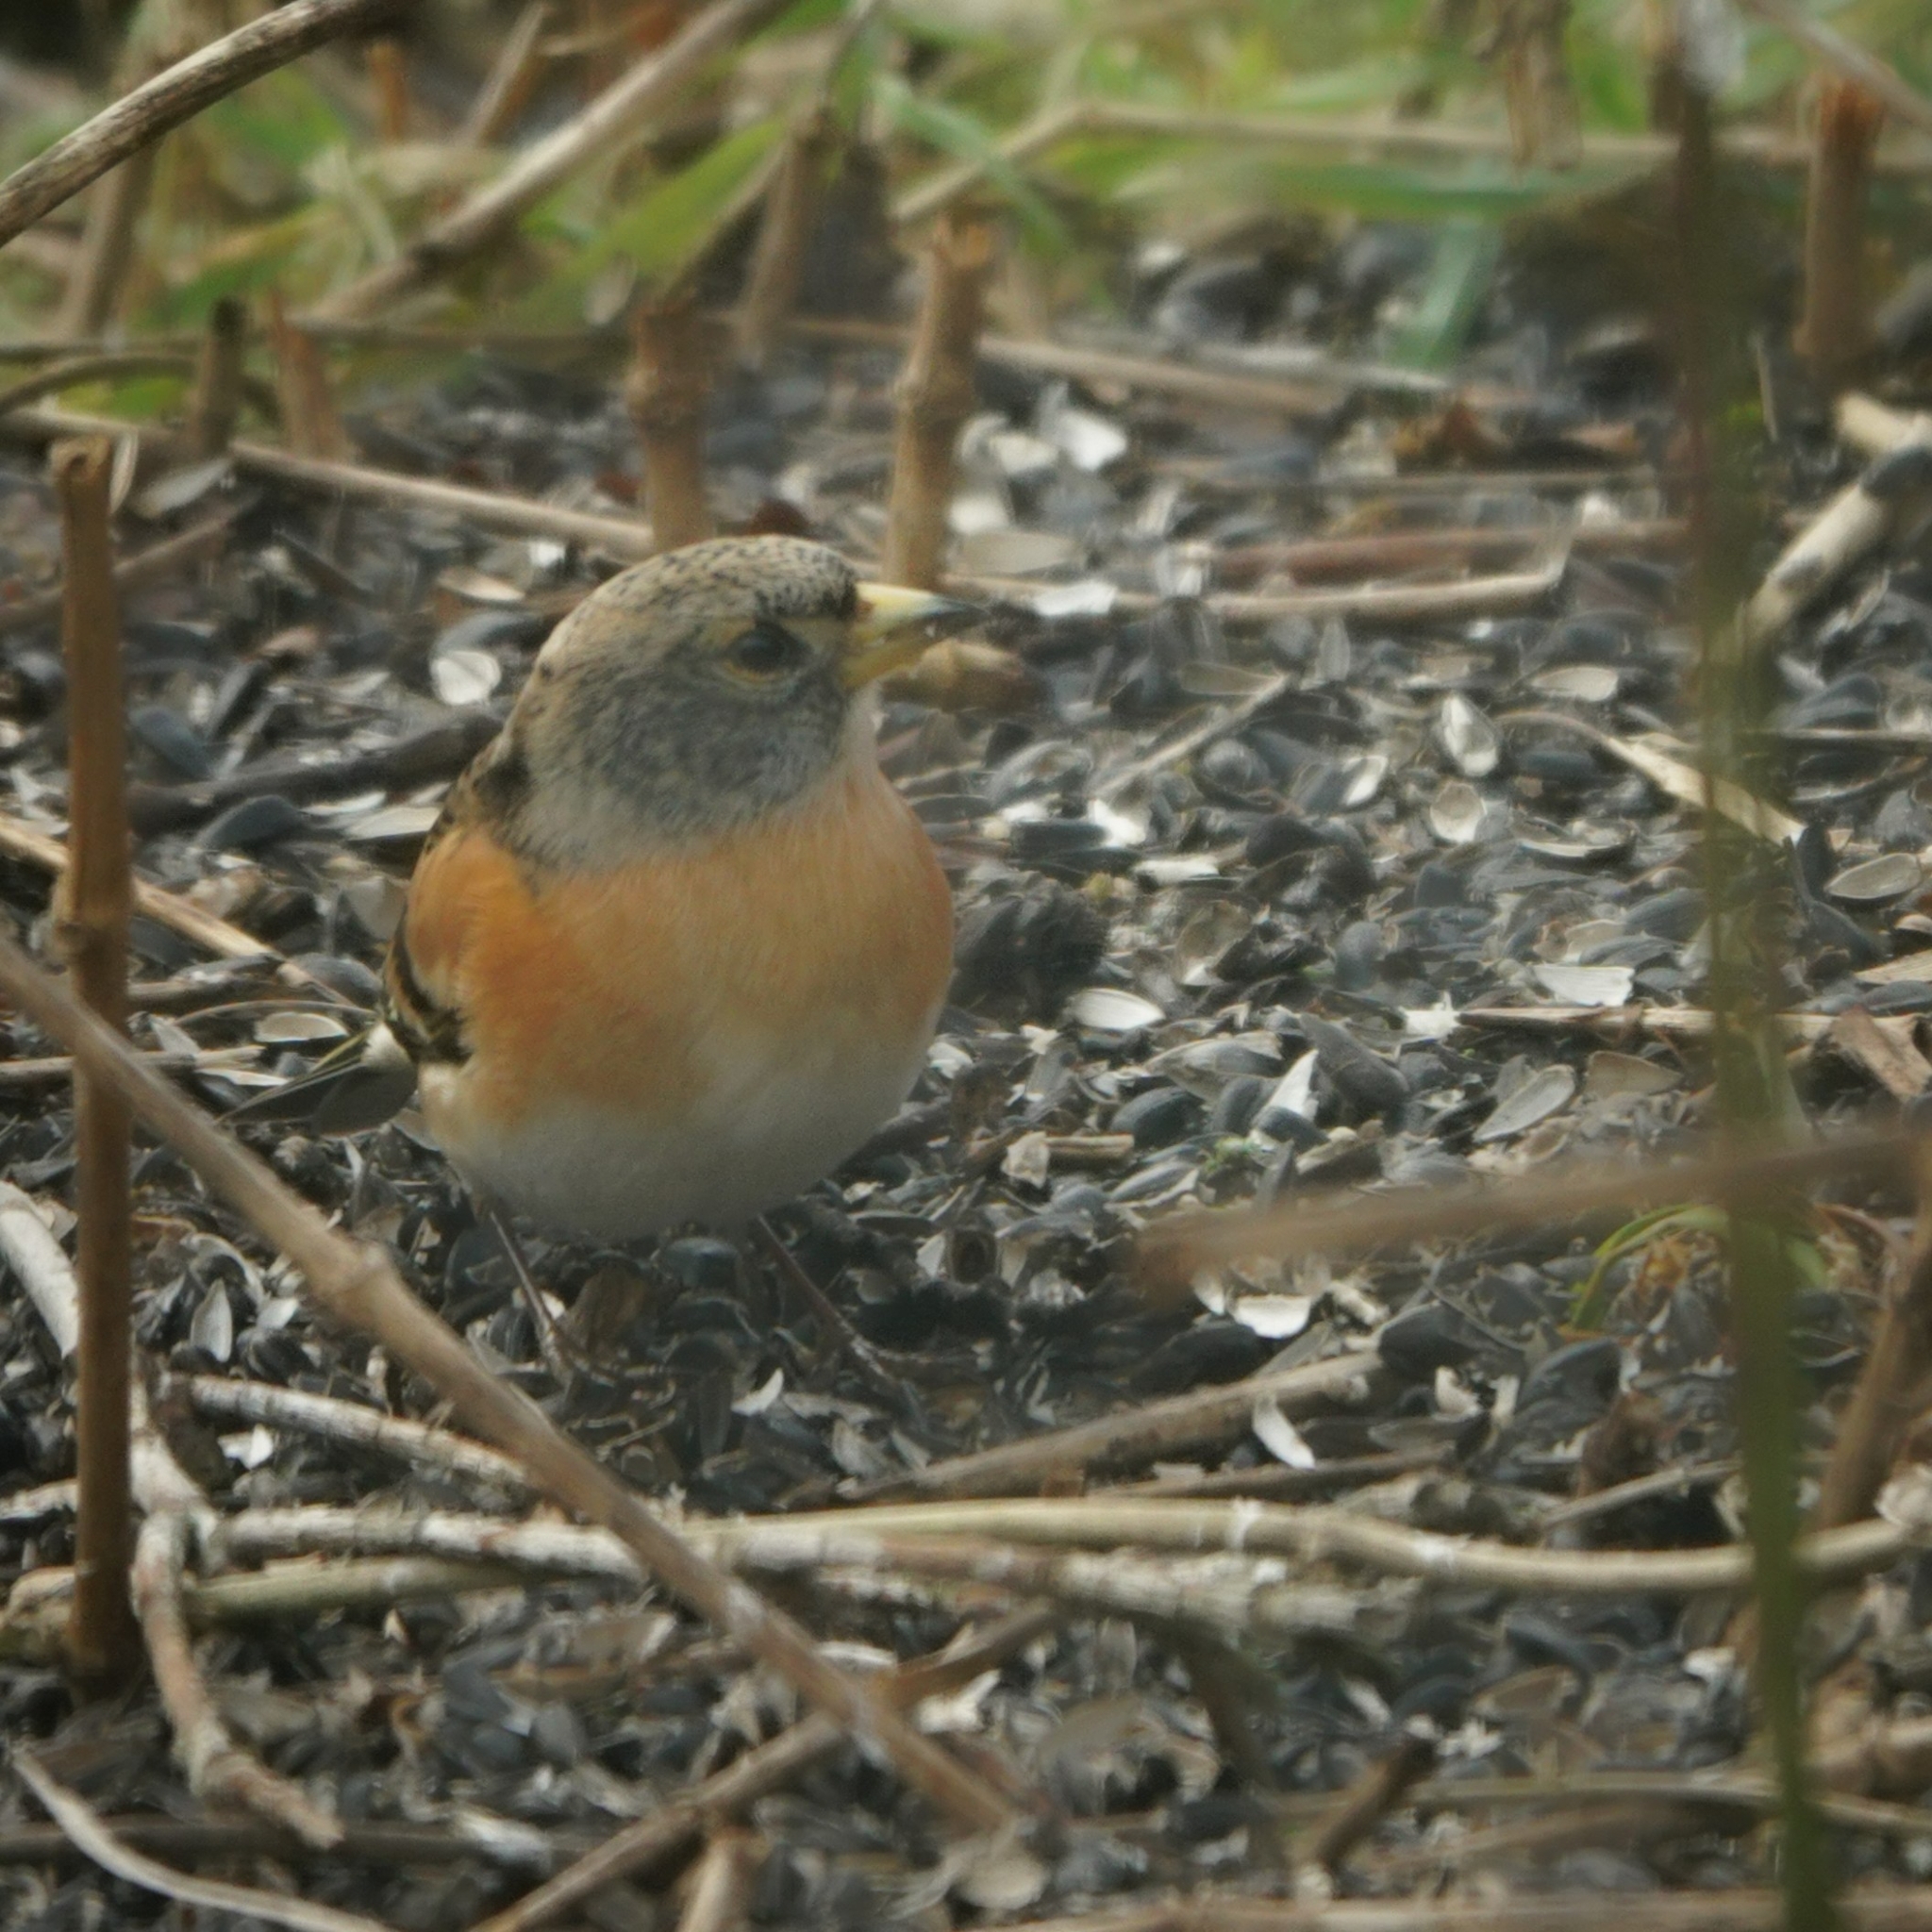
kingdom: Animalia
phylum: Chordata
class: Aves
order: Passeriformes
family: Fringillidae
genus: Fringilla
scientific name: Fringilla montifringilla
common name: Brambling
